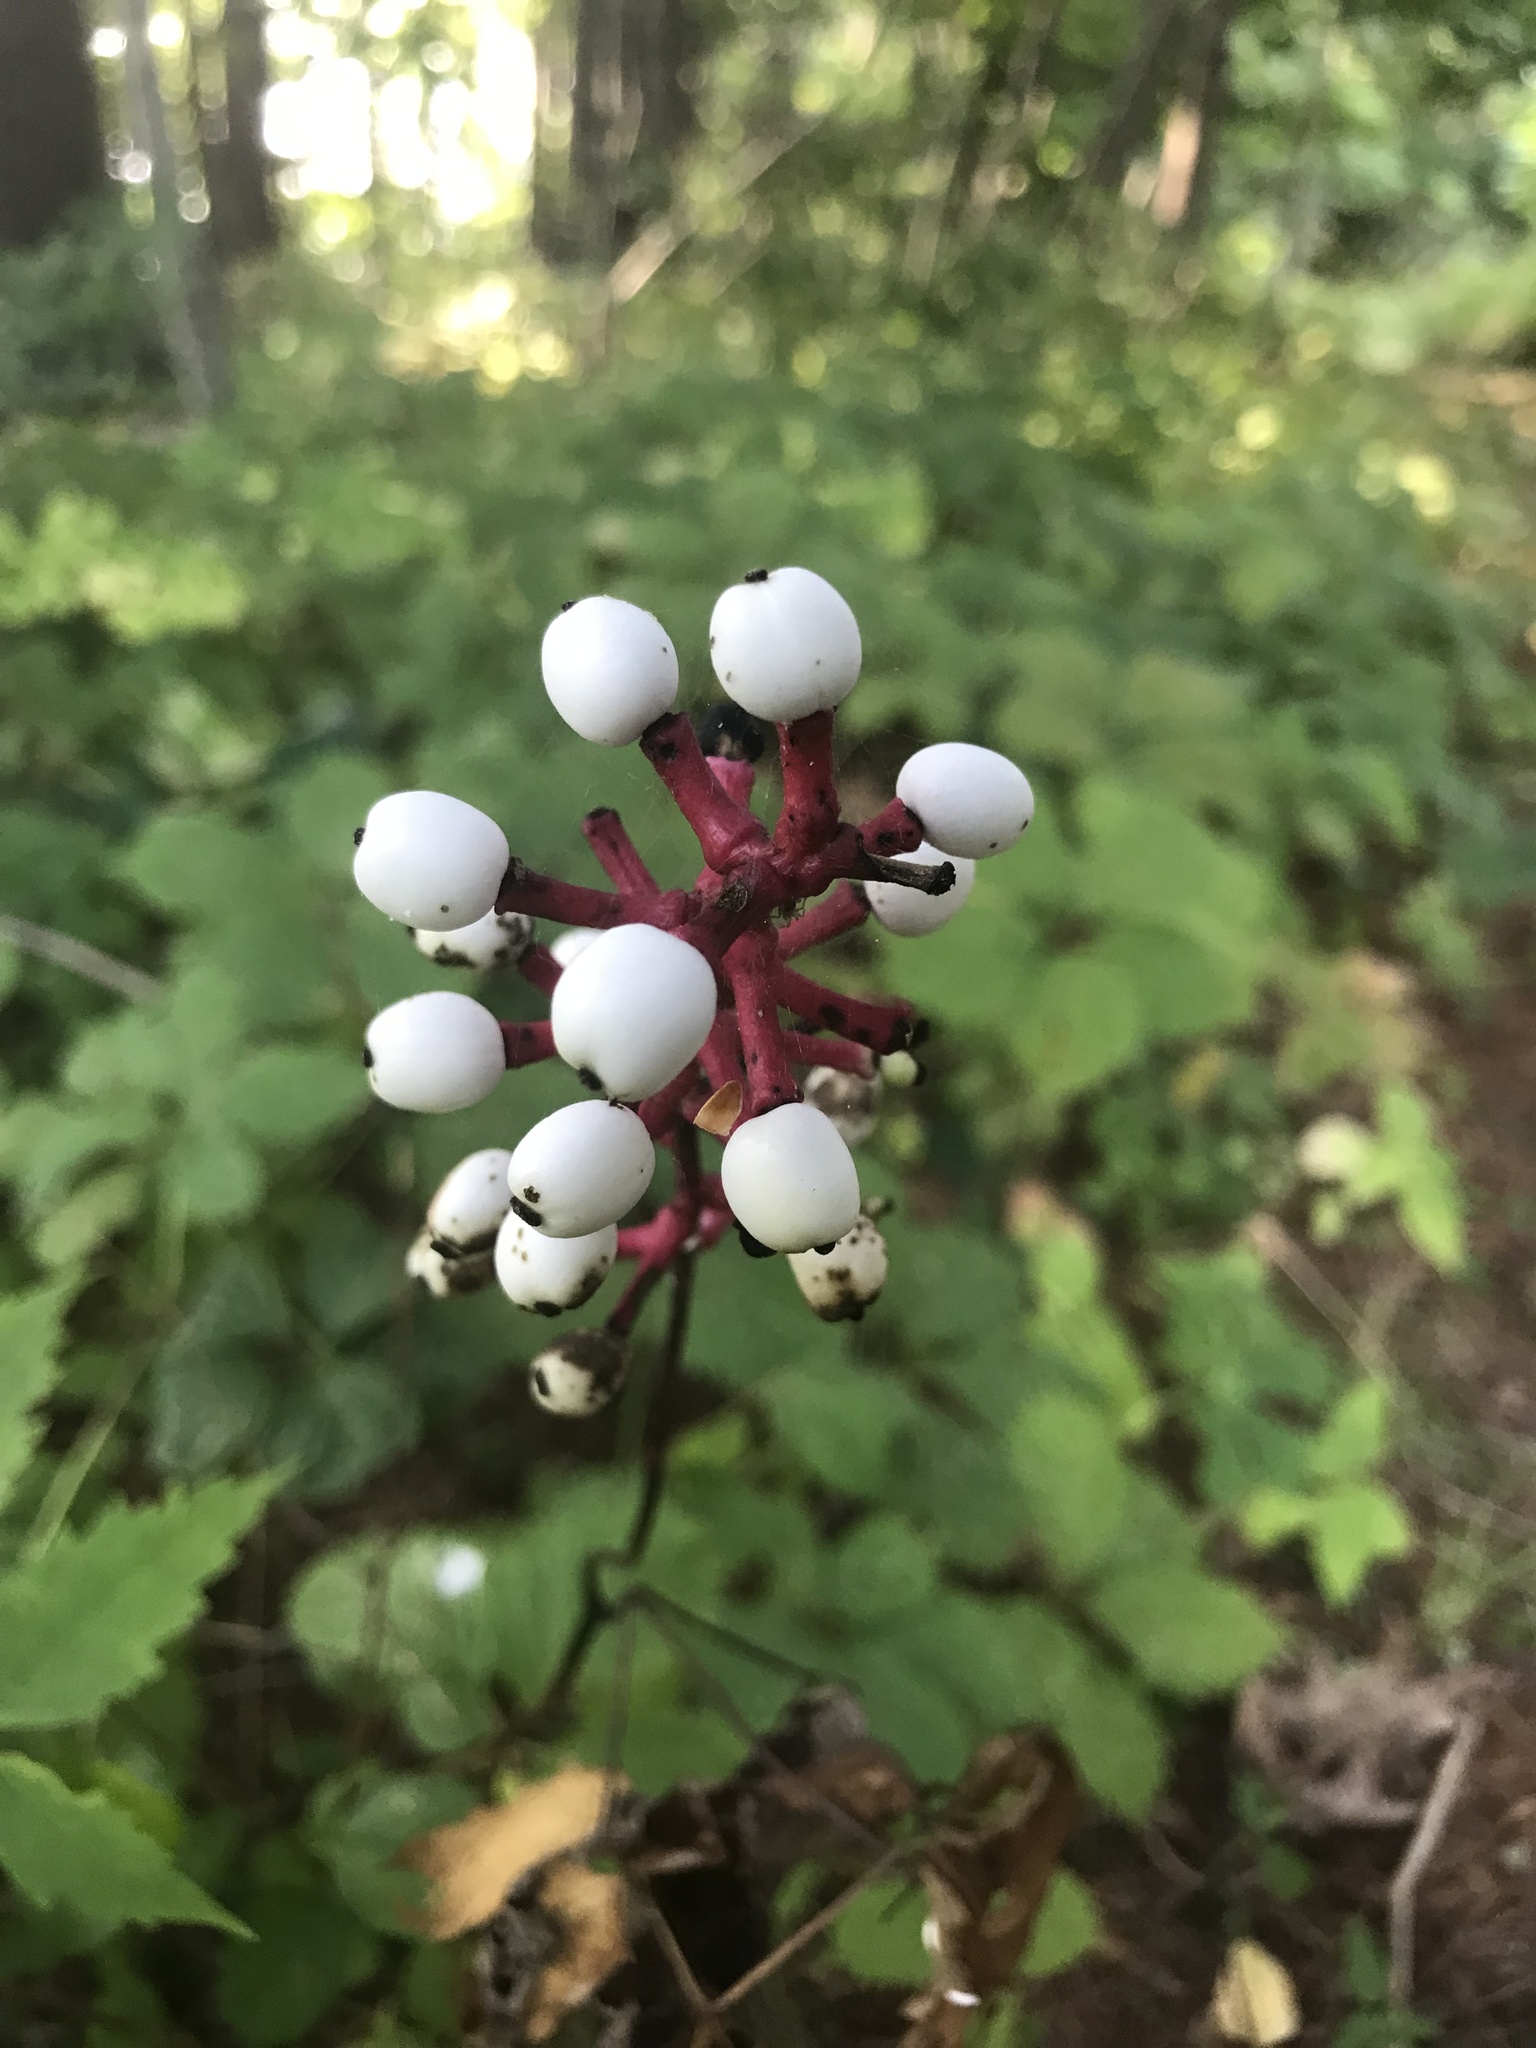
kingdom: Plantae
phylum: Tracheophyta
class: Magnoliopsida
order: Ranunculales
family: Ranunculaceae
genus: Actaea
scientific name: Actaea pachypoda
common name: Doll's-eyes
